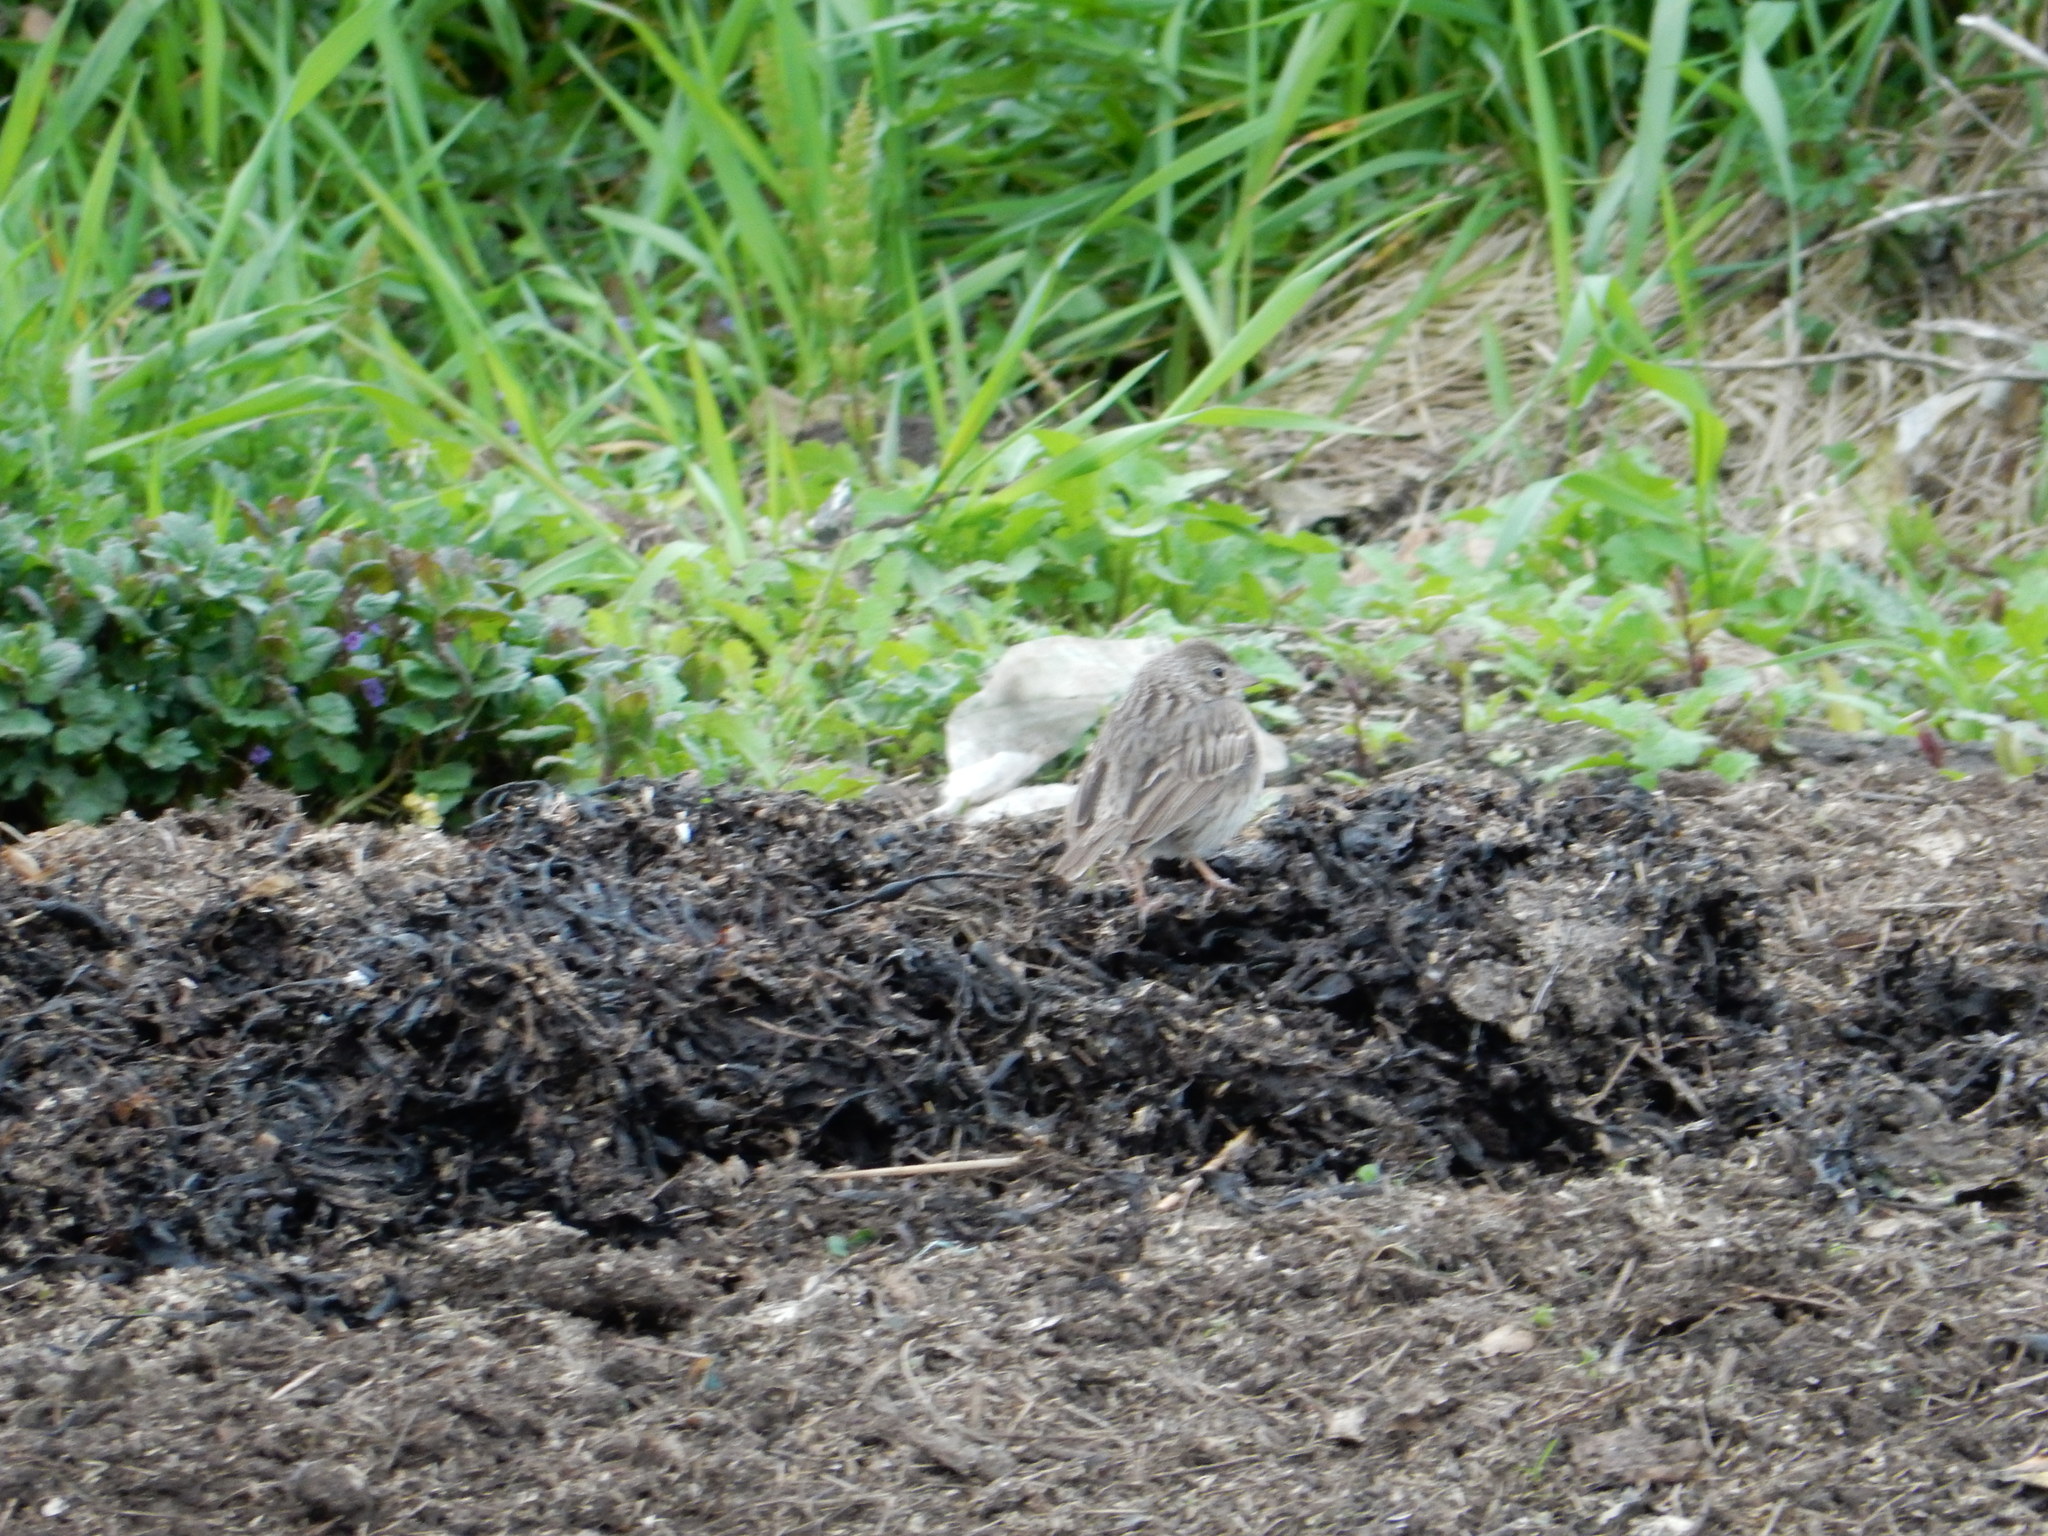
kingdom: Animalia
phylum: Chordata
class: Aves
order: Passeriformes
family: Passerellidae
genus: Pooecetes
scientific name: Pooecetes gramineus
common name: Vesper sparrow
